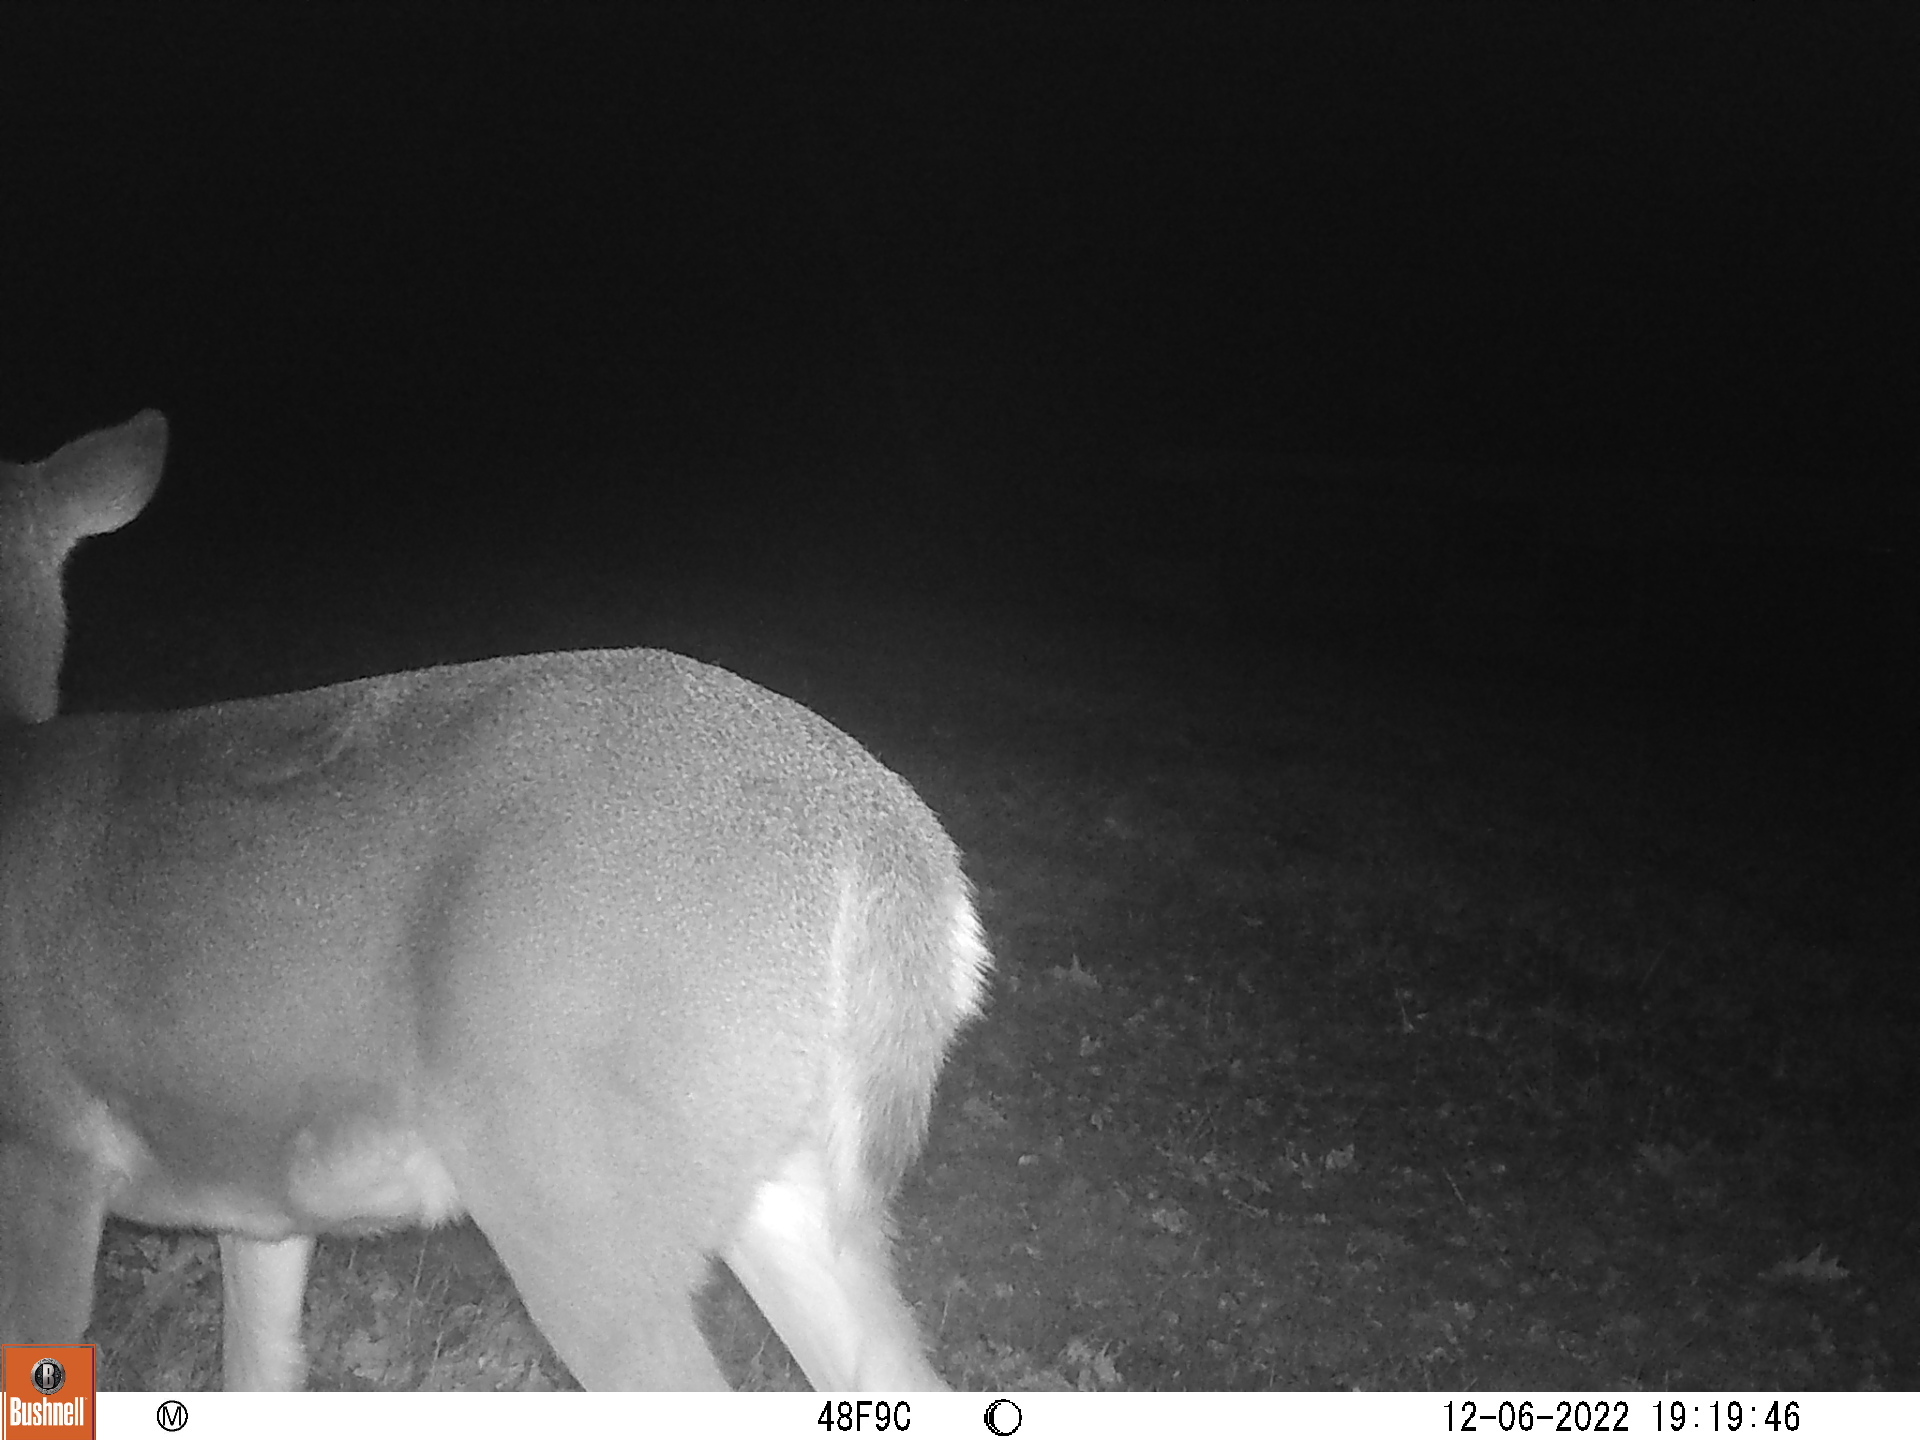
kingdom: Animalia
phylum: Chordata
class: Mammalia
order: Artiodactyla
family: Cervidae
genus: Odocoileus
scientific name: Odocoileus virginianus
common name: White-tailed deer
